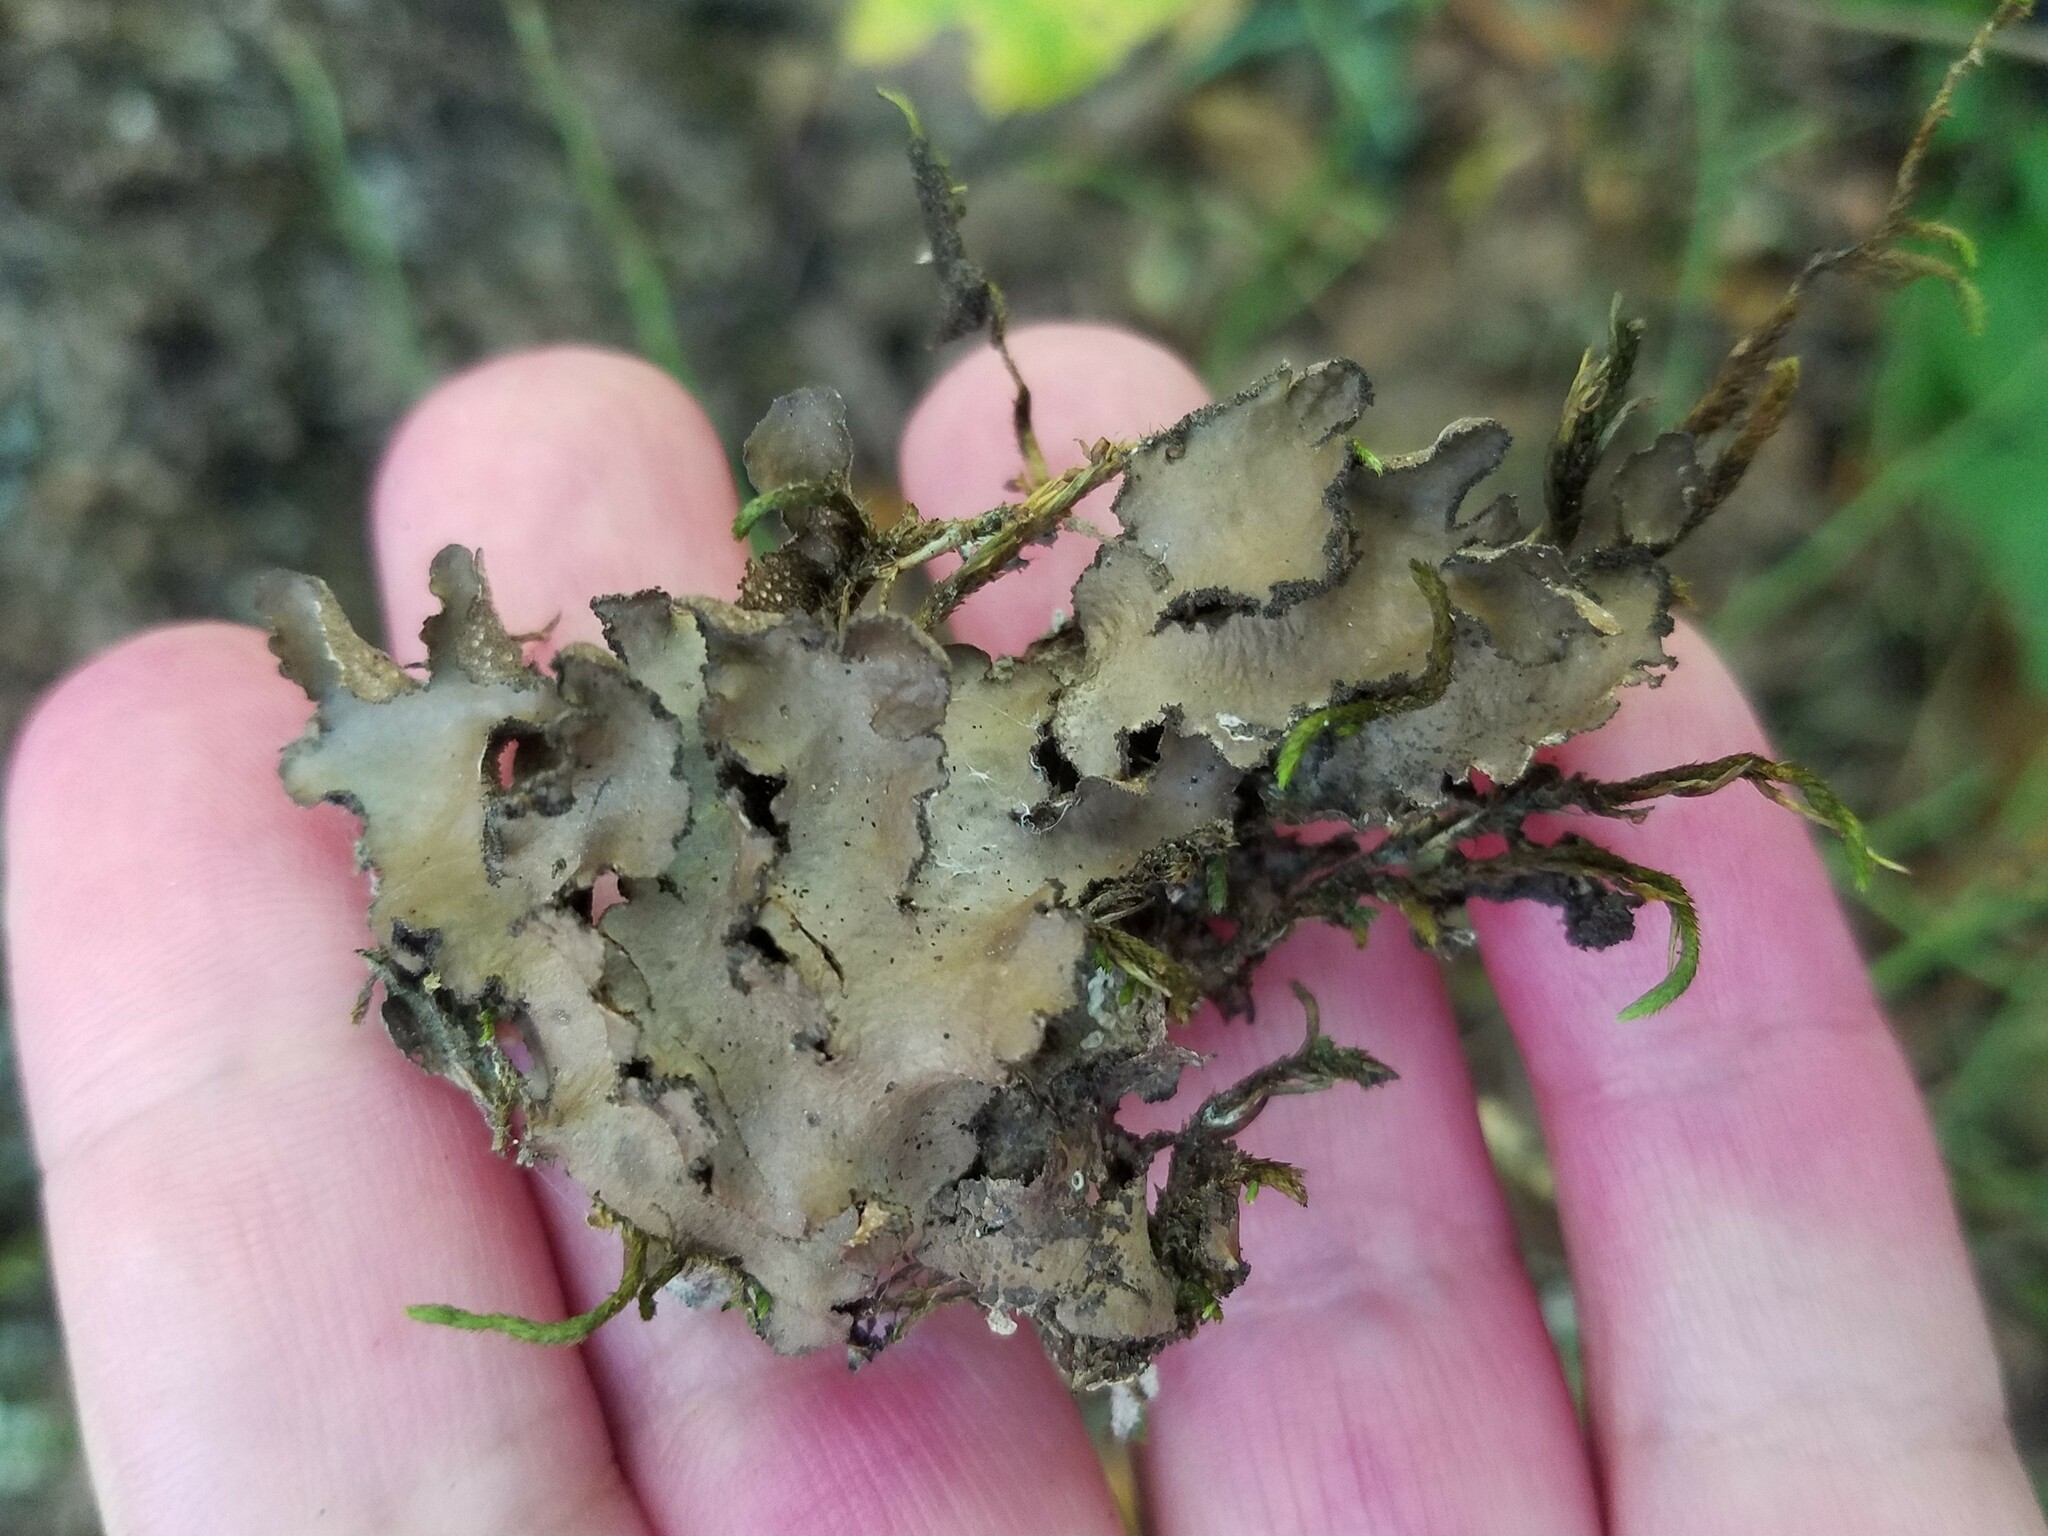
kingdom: Fungi
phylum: Ascomycota
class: Lecanoromycetes
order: Peltigerales
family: Lobariaceae
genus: Sticta
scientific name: Sticta beauvoisii
